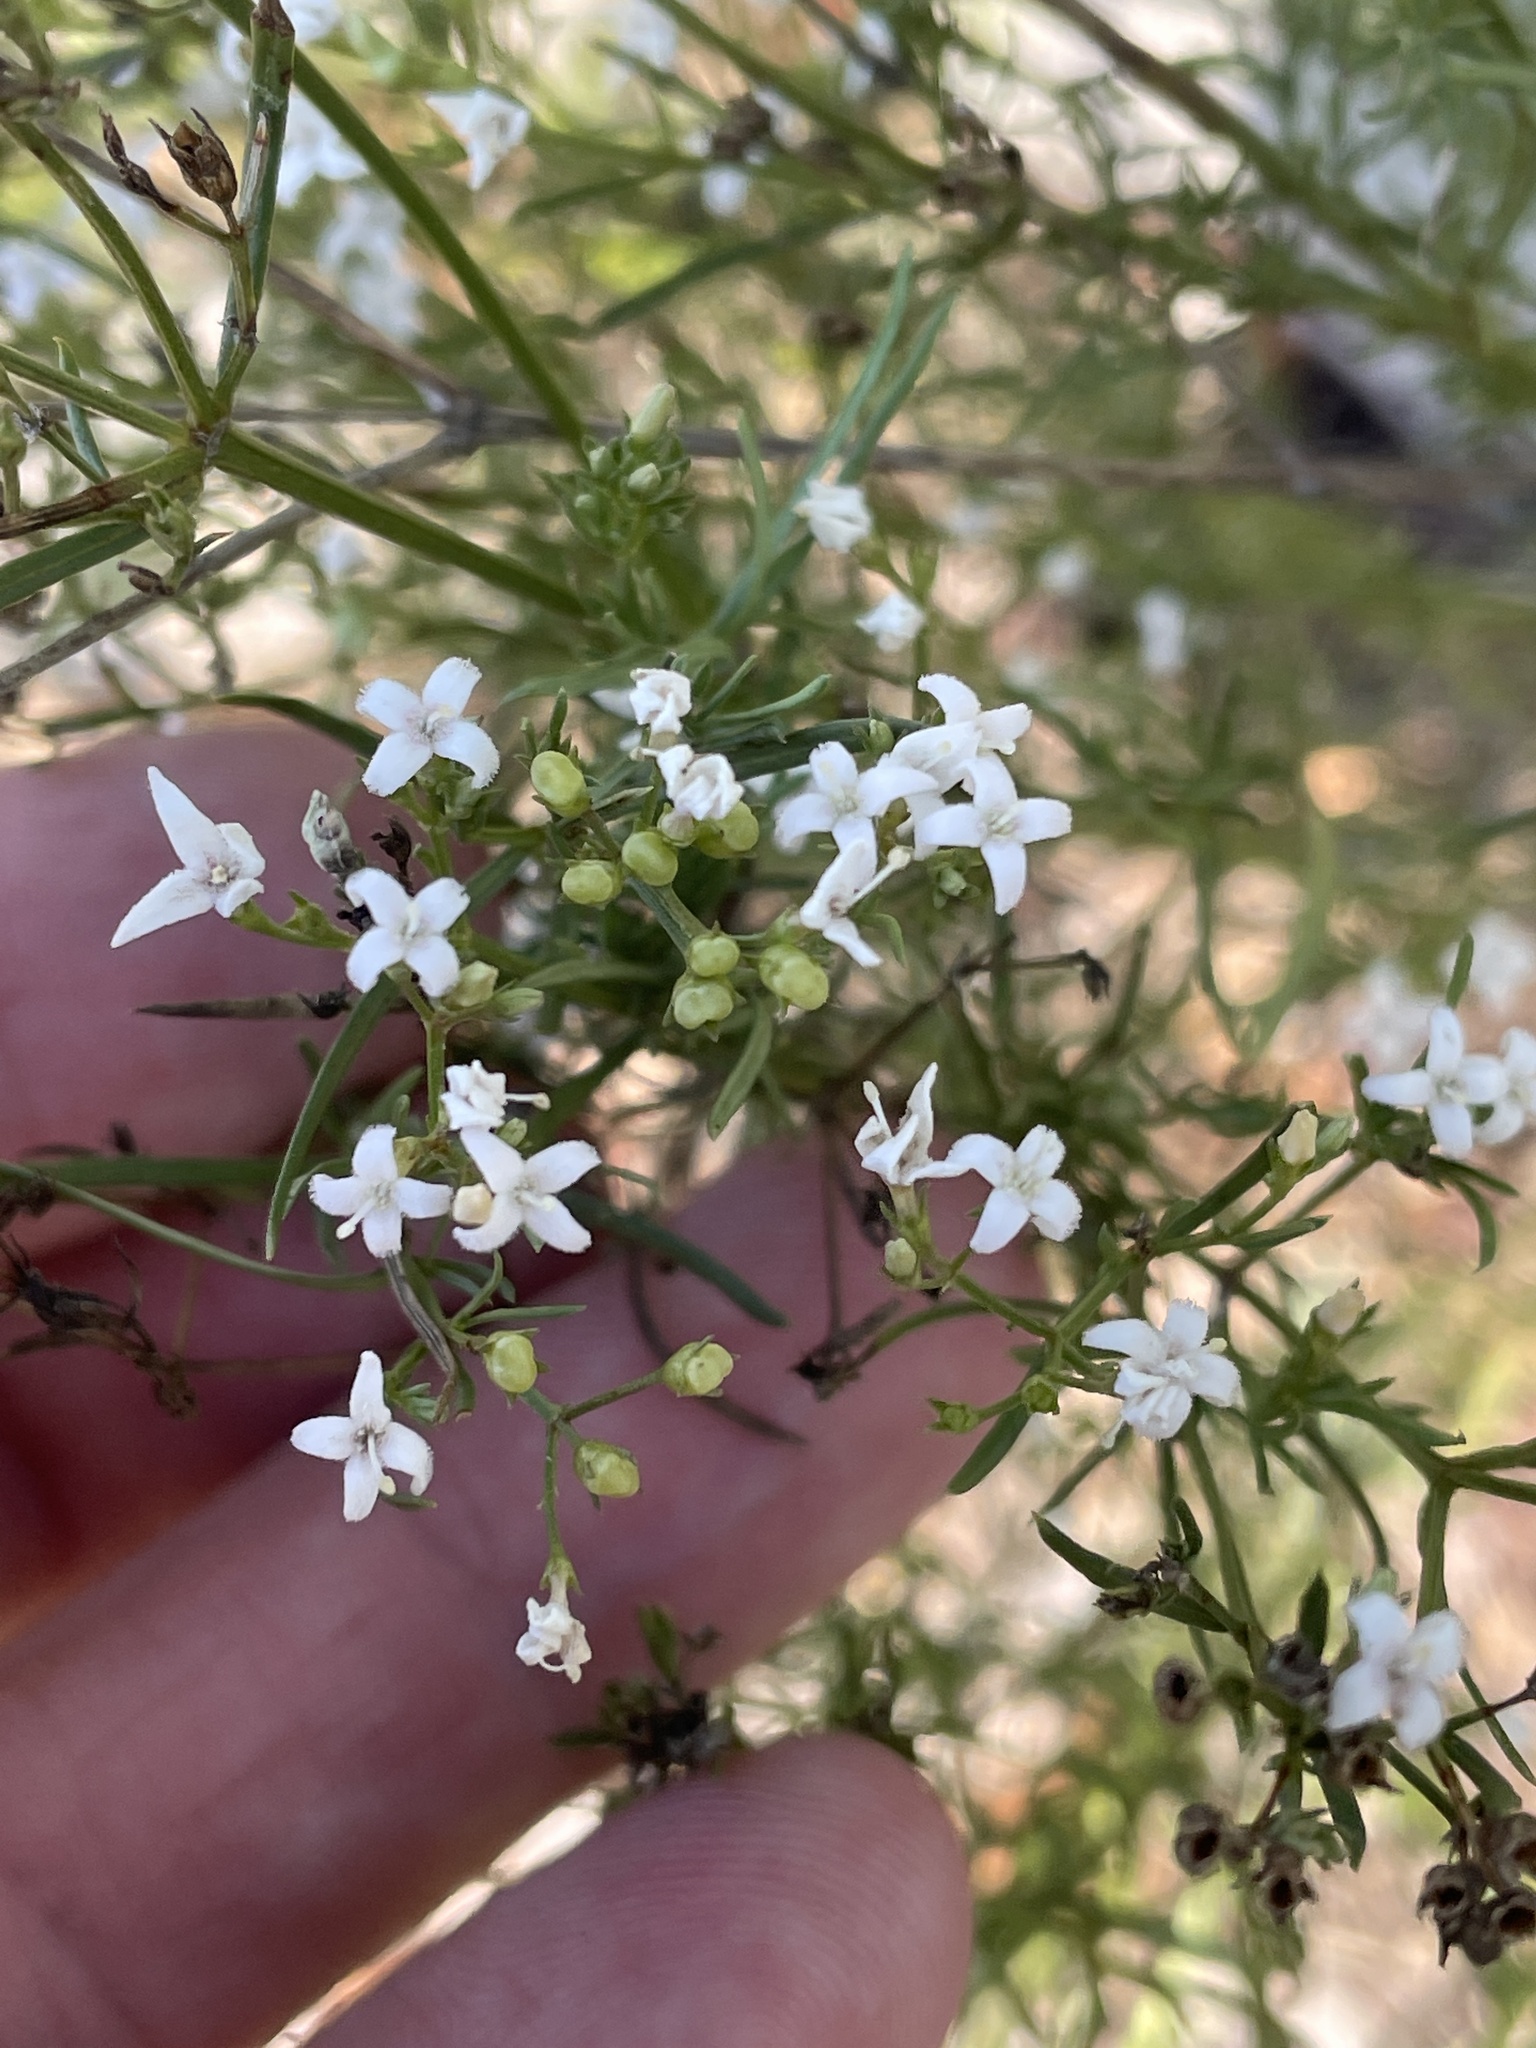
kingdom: Plantae
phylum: Tracheophyta
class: Magnoliopsida
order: Gentianales
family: Rubiaceae
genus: Stenaria
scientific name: Stenaria nigricans
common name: Diamondflowers
